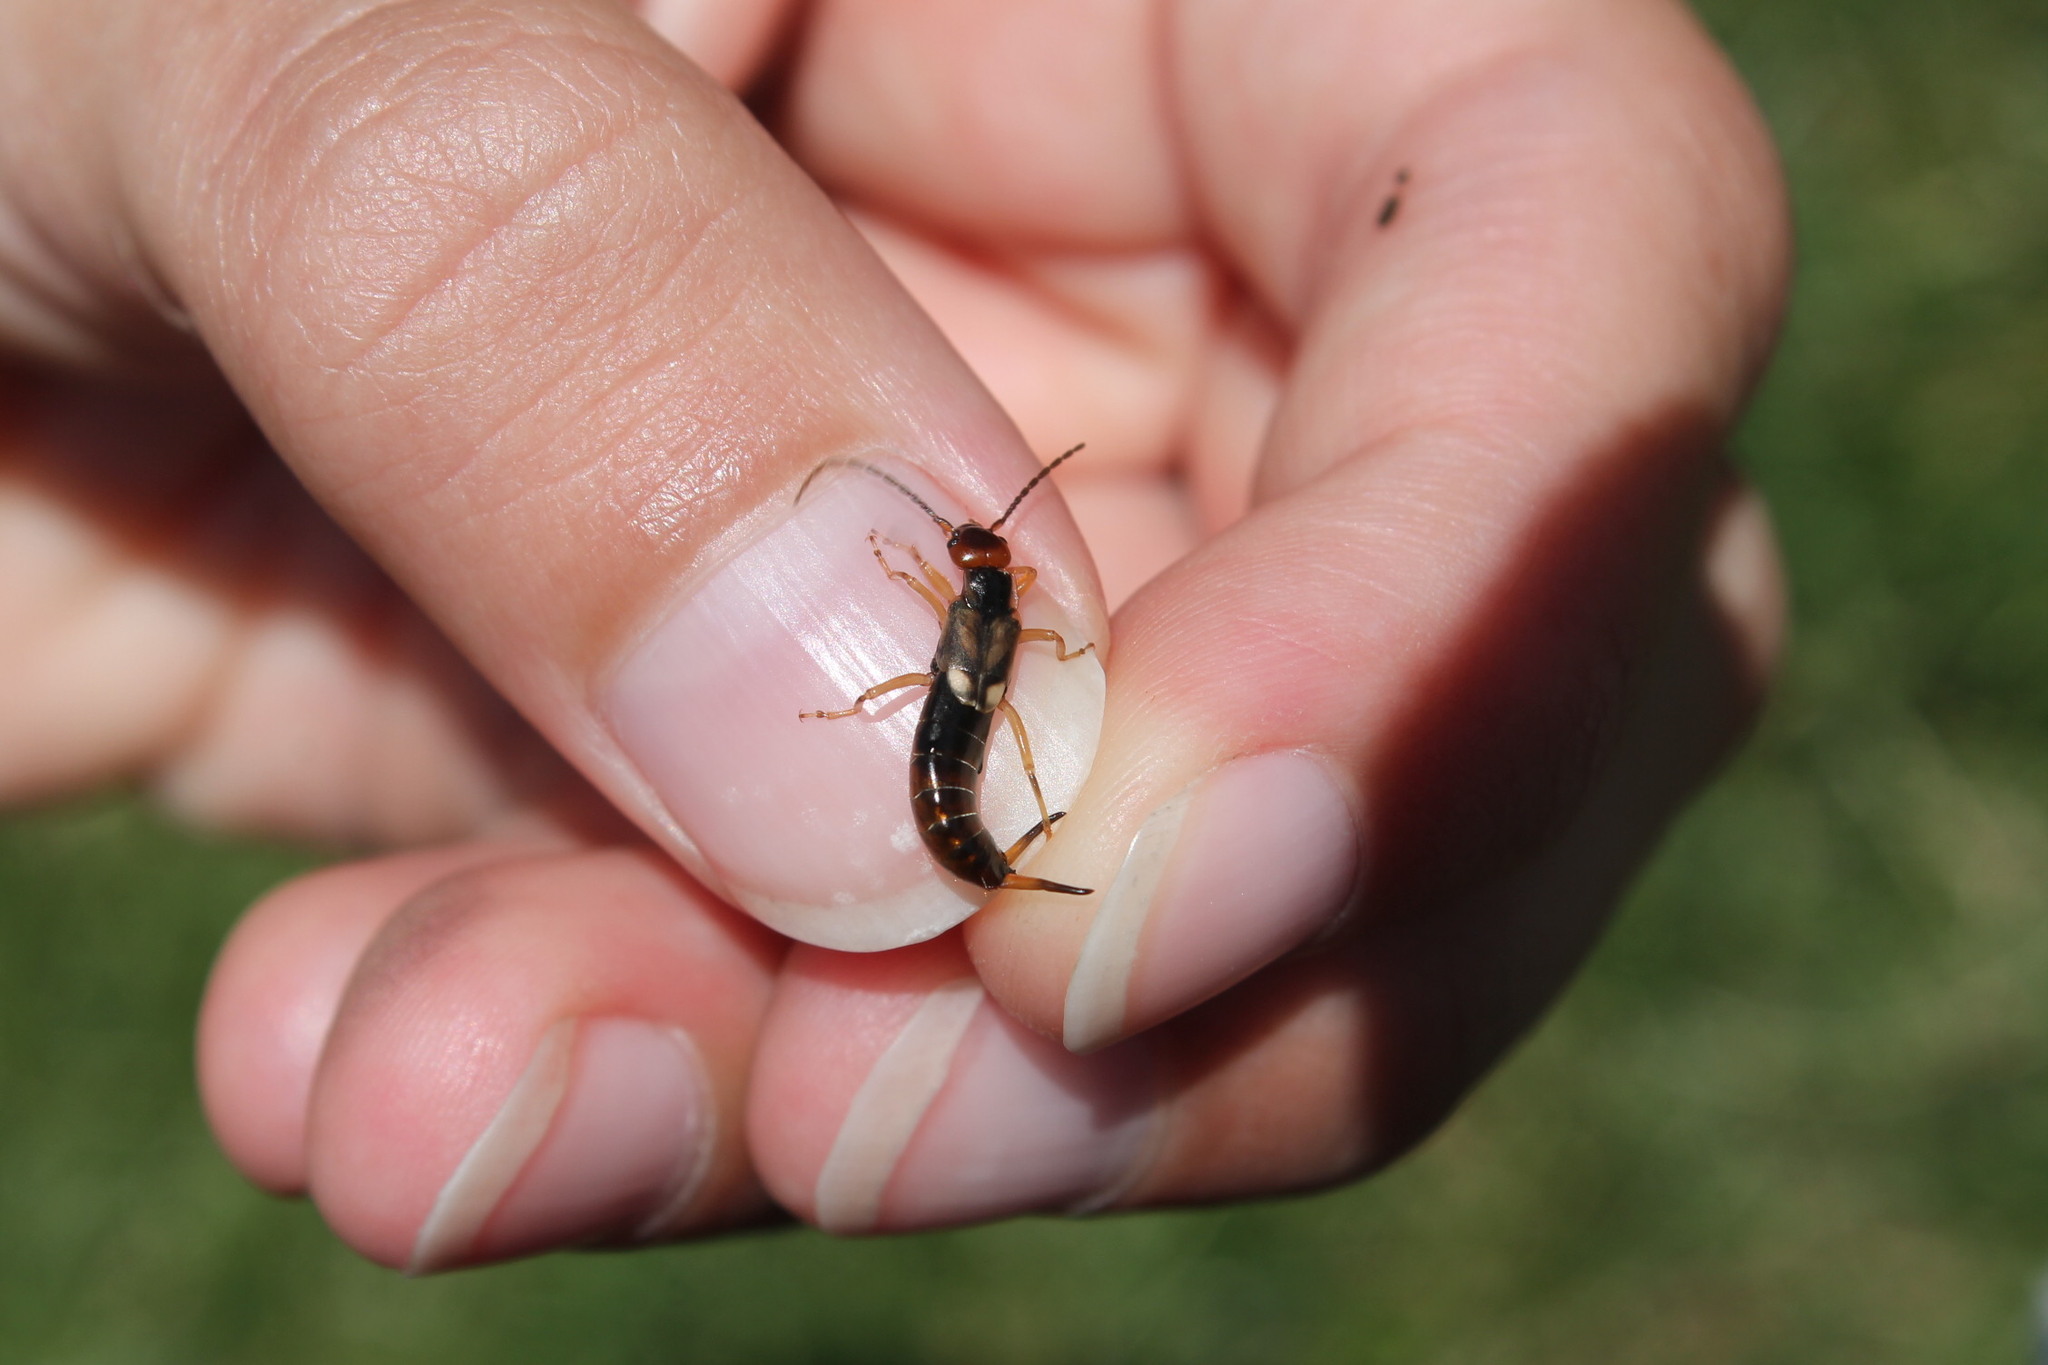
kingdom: Animalia
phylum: Arthropoda
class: Insecta
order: Dermaptera
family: Forficulidae
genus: Forficula
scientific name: Forficula
